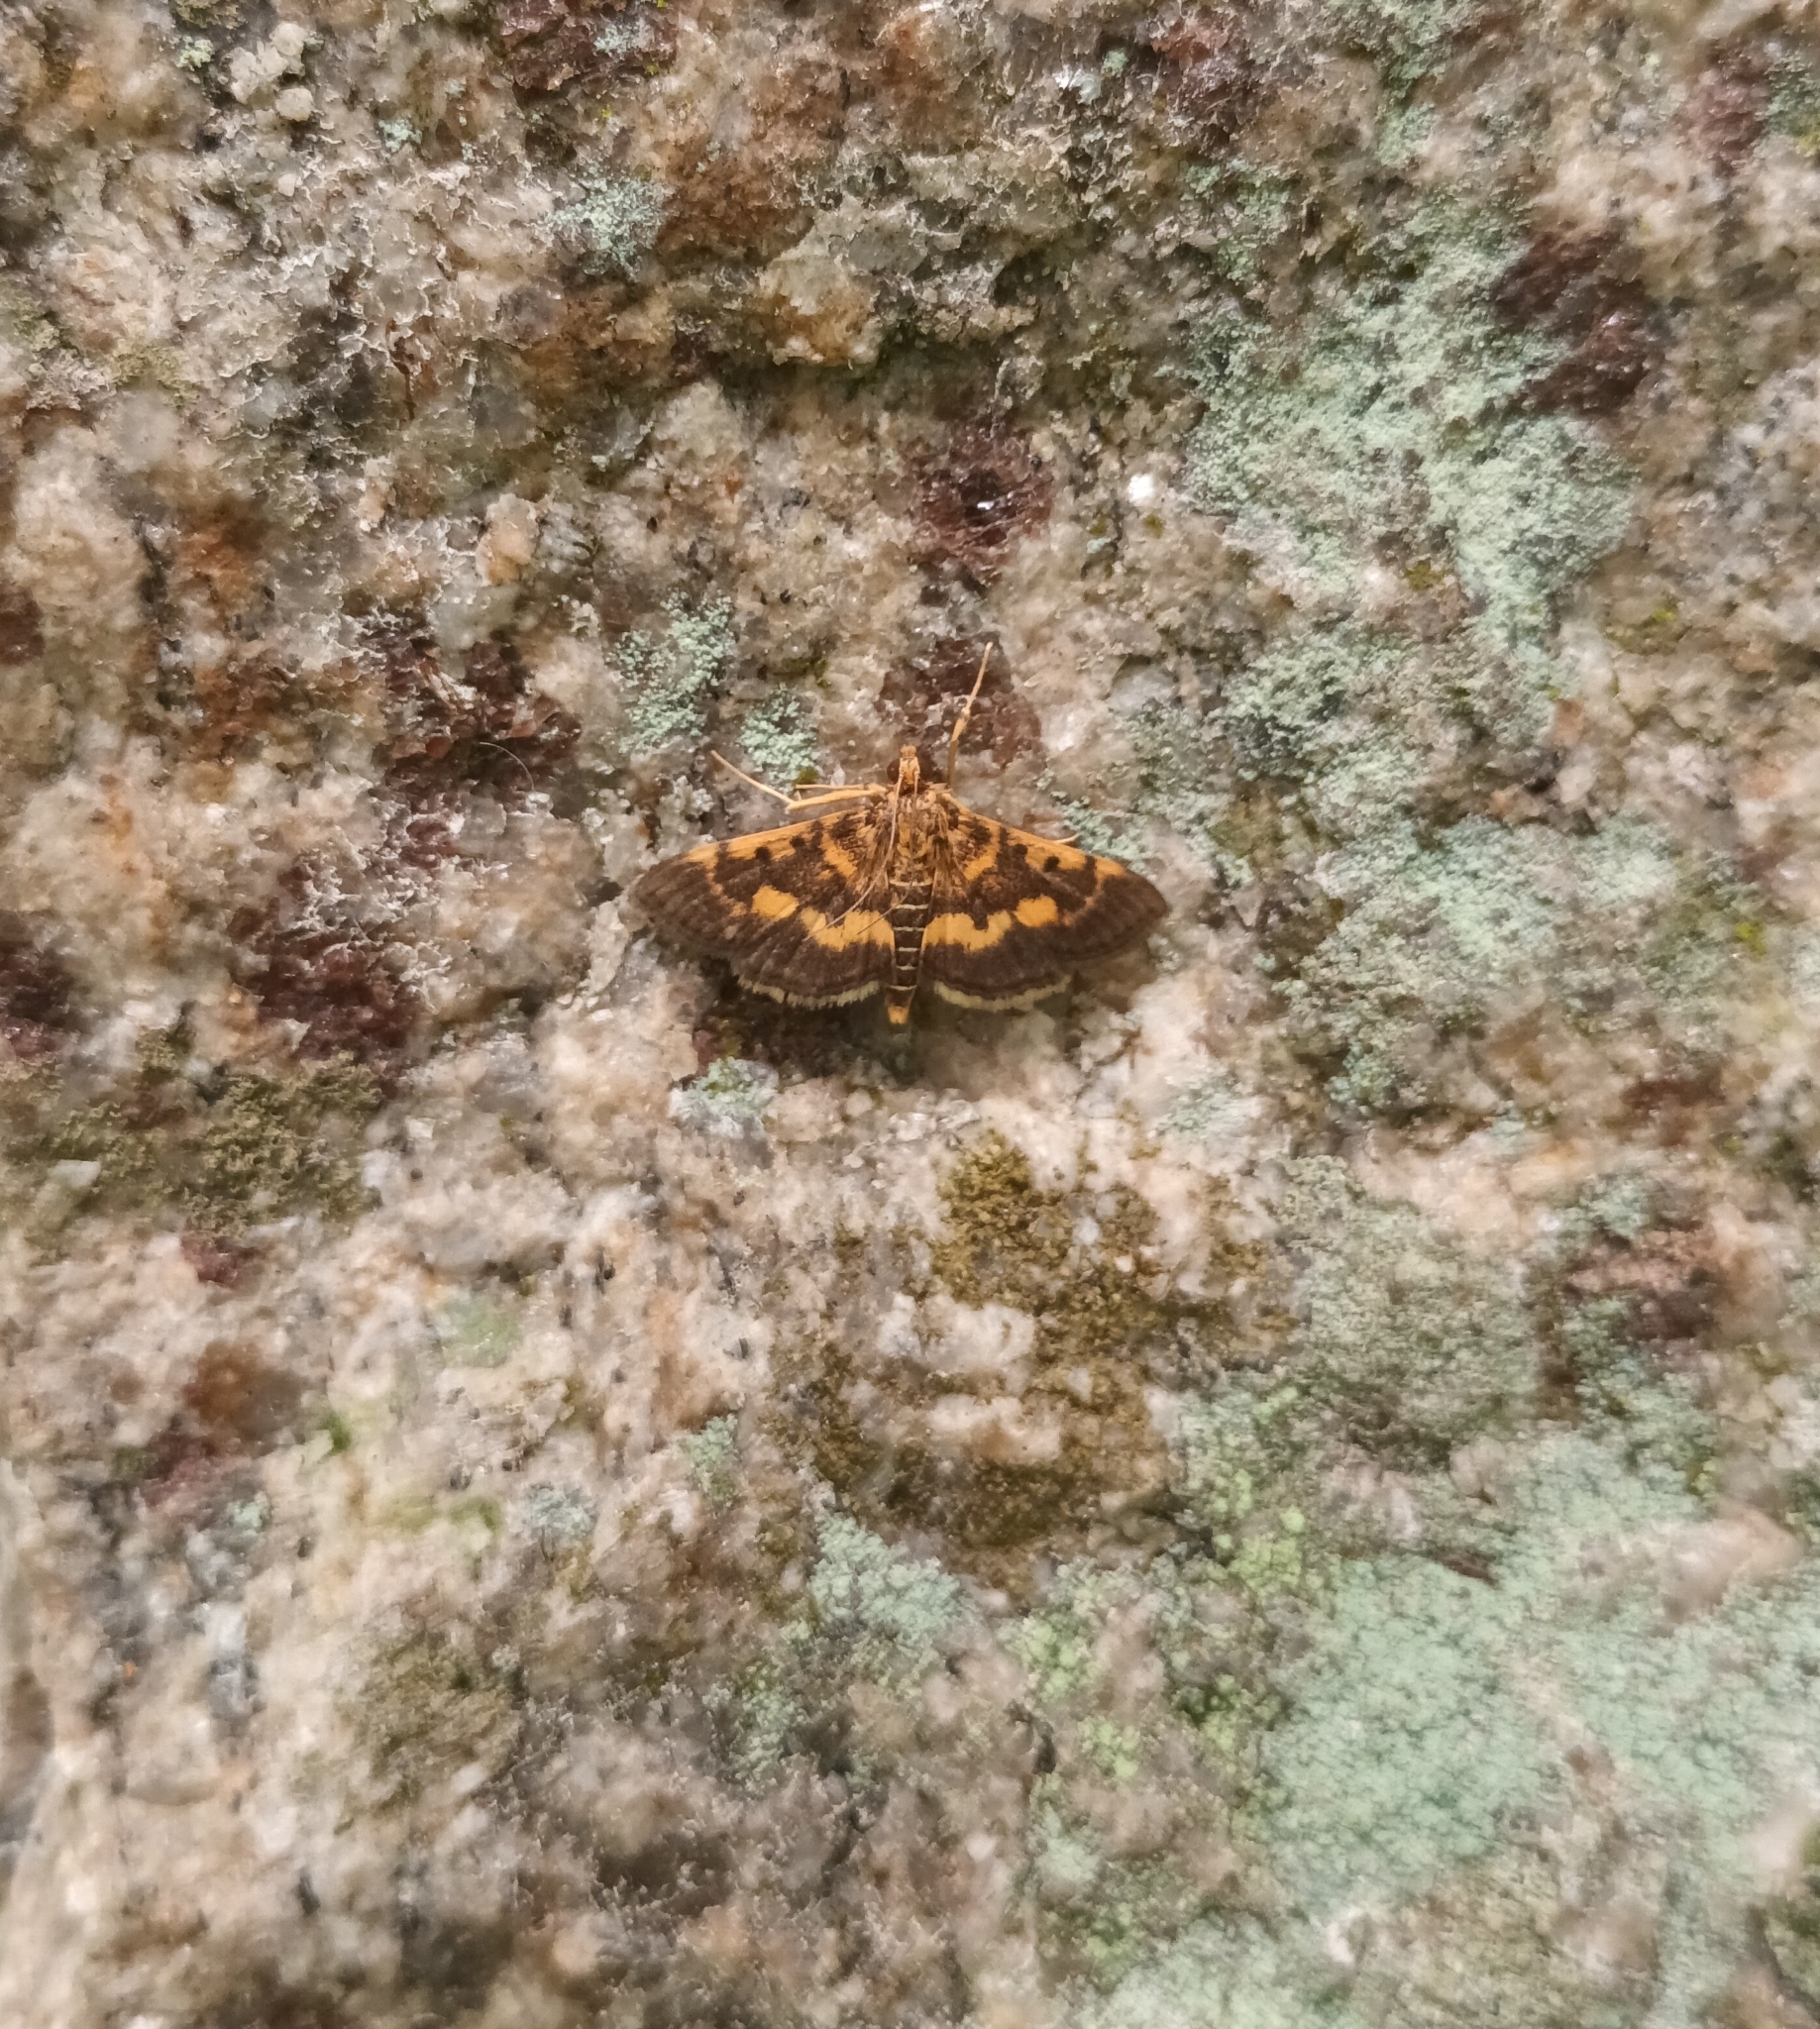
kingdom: Animalia
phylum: Arthropoda
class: Insecta
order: Lepidoptera
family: Crambidae
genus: Omiodes
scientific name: Omiodes diemenalis
